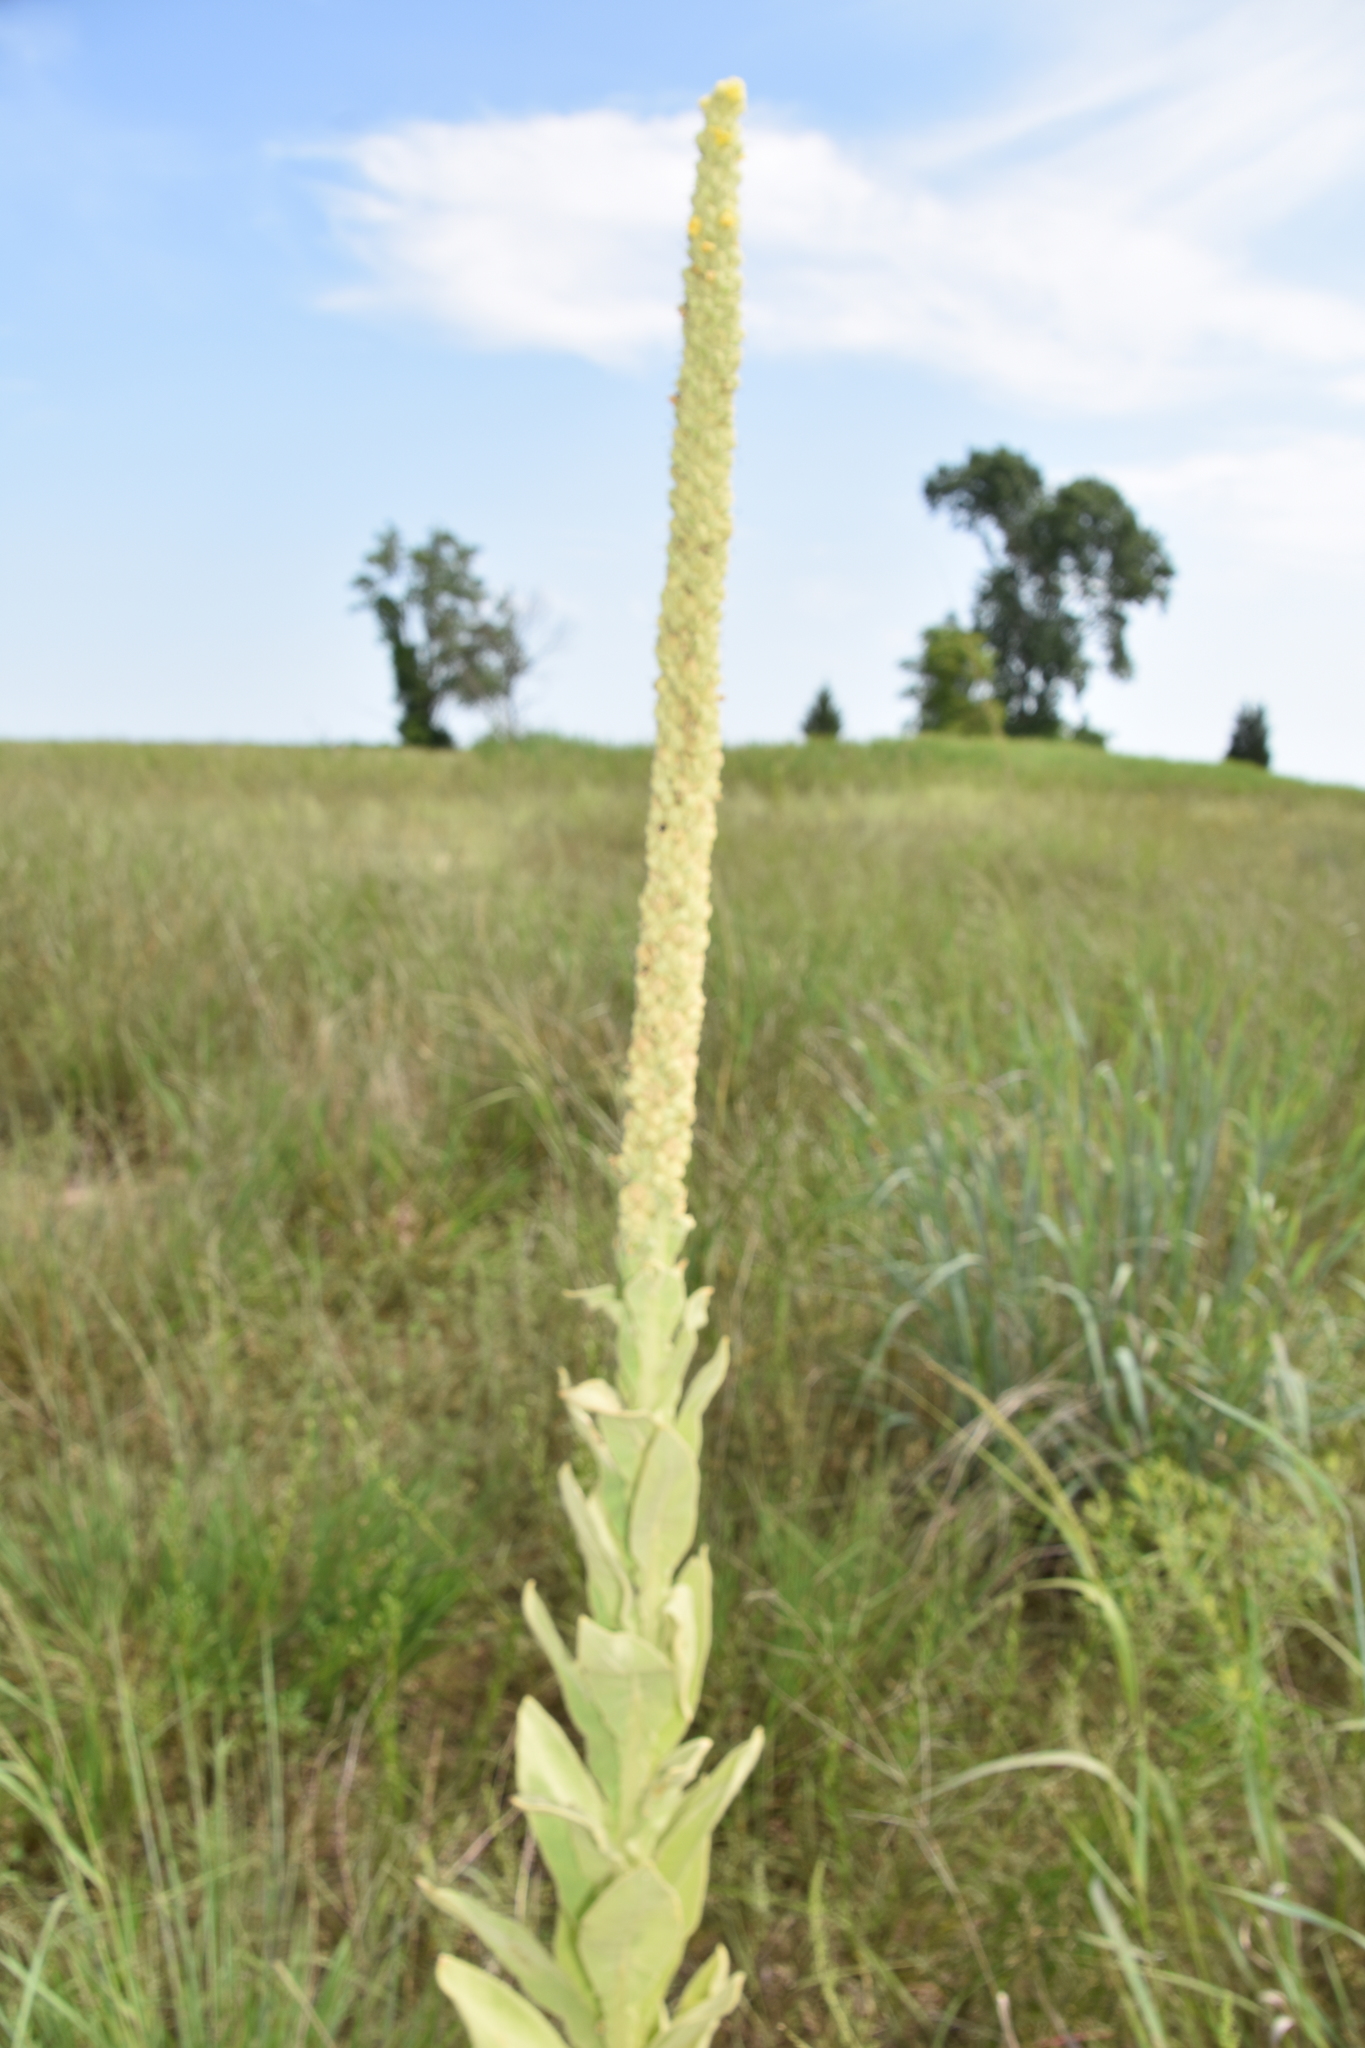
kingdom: Plantae
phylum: Tracheophyta
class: Magnoliopsida
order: Lamiales
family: Scrophulariaceae
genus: Verbascum
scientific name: Verbascum thapsus
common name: Common mullein
